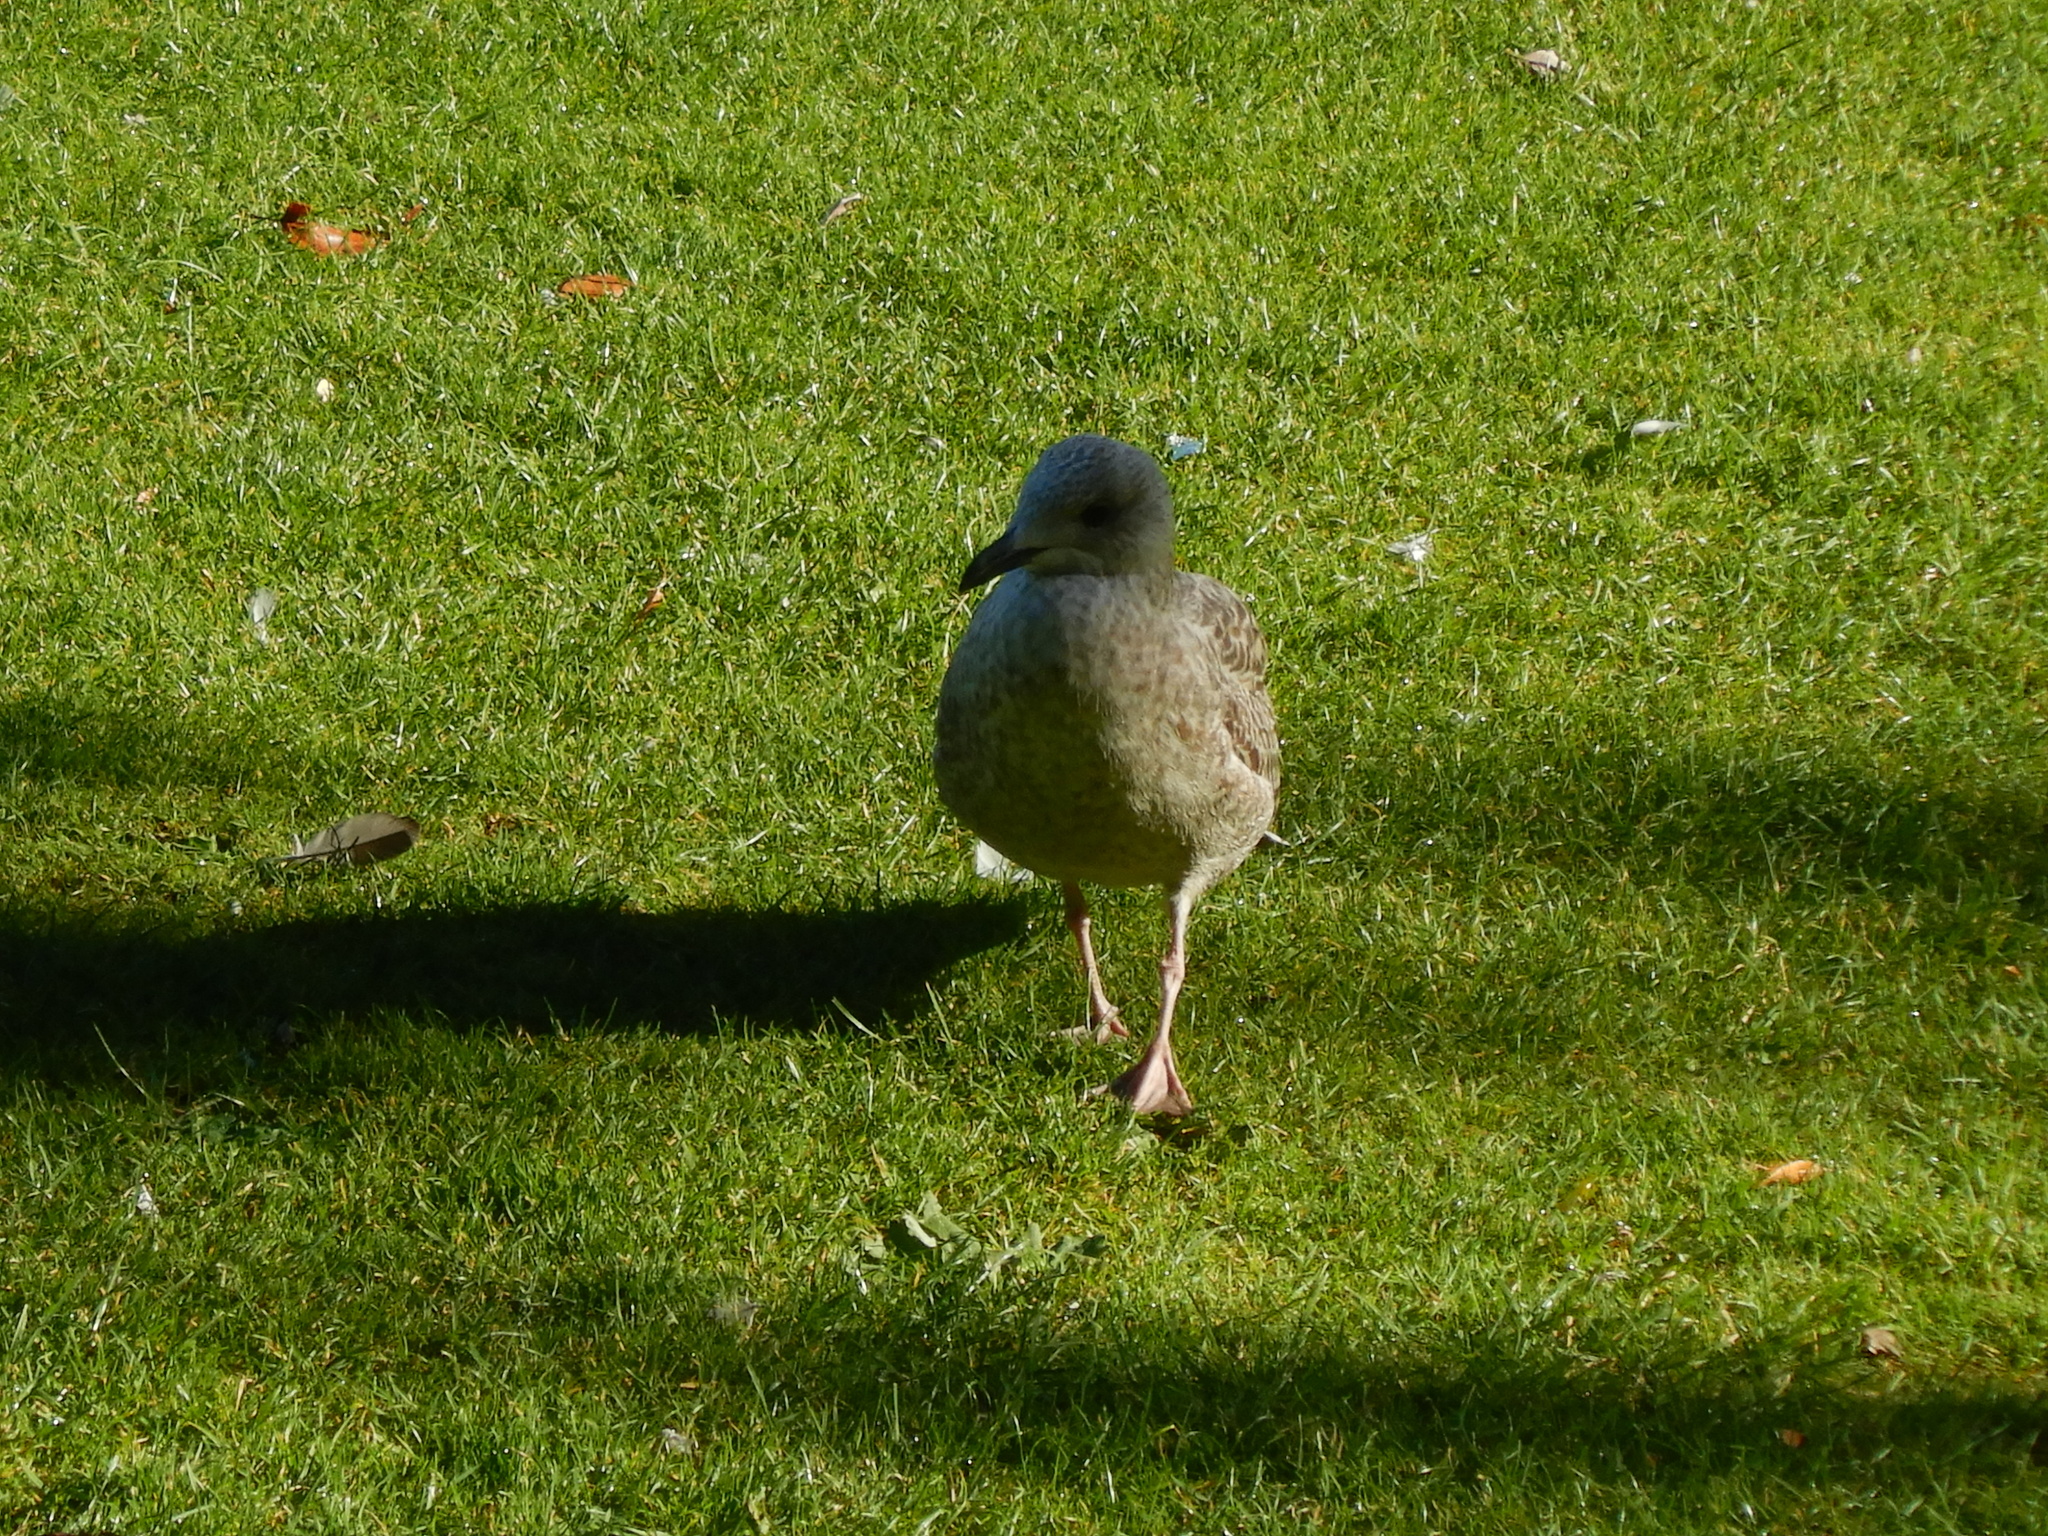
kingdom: Animalia
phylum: Chordata
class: Aves
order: Charadriiformes
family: Laridae
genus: Larus
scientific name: Larus argentatus
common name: Herring gull
